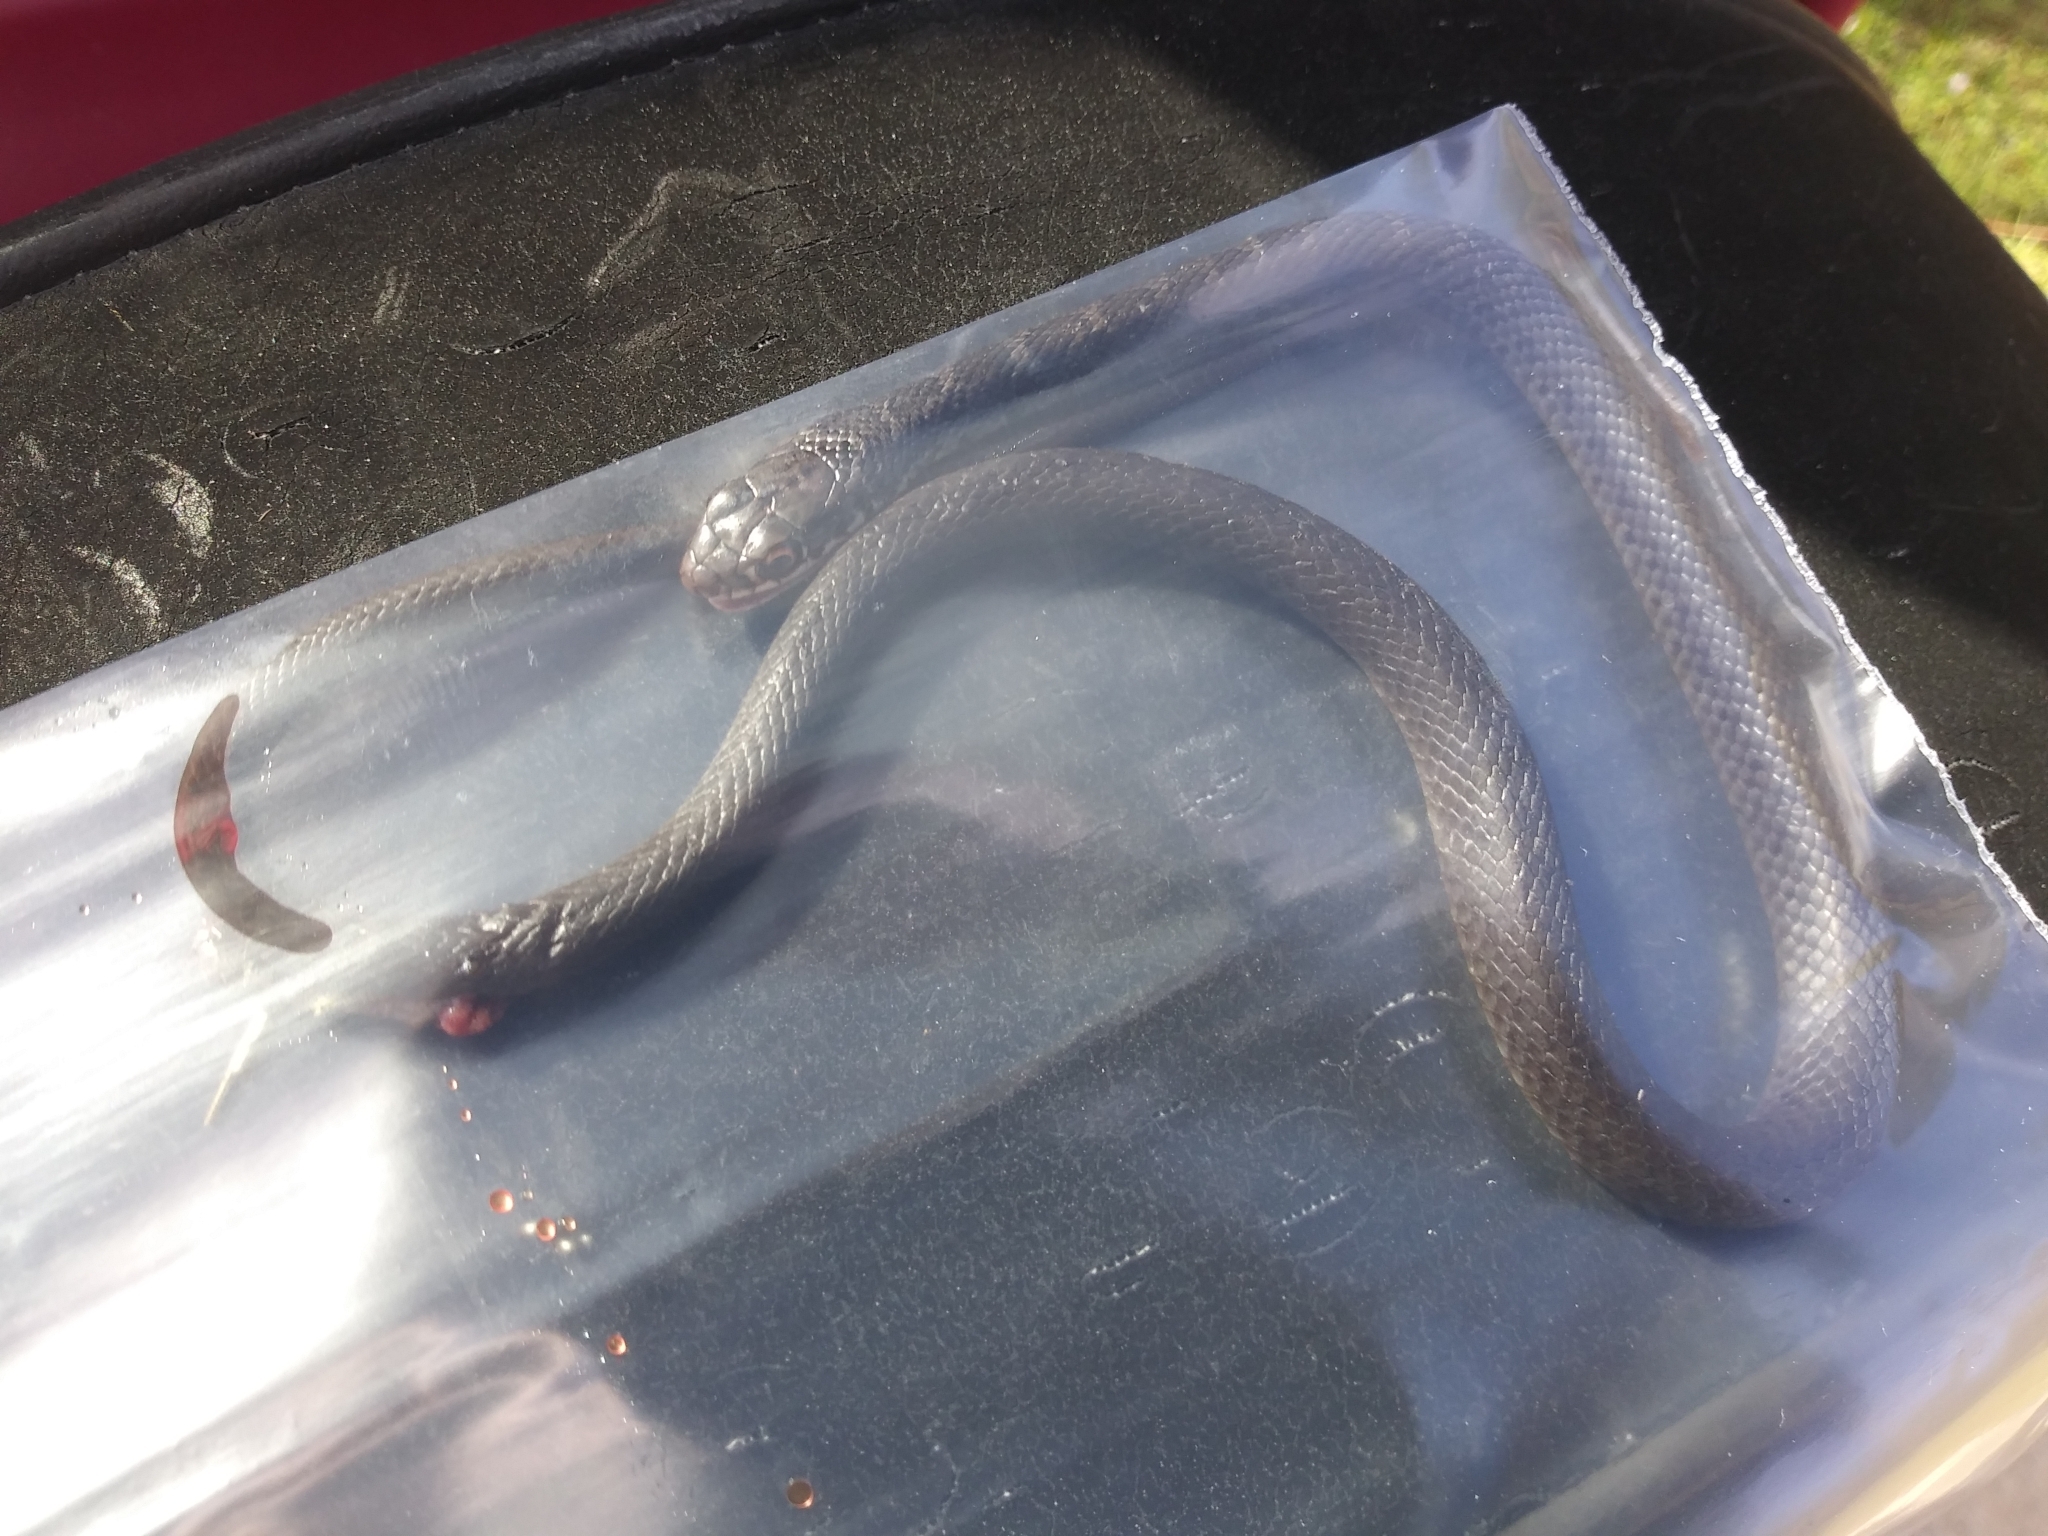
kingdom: Animalia
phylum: Chordata
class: Squamata
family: Colubridae
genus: Coluber
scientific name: Coluber constrictor
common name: Eastern racer
